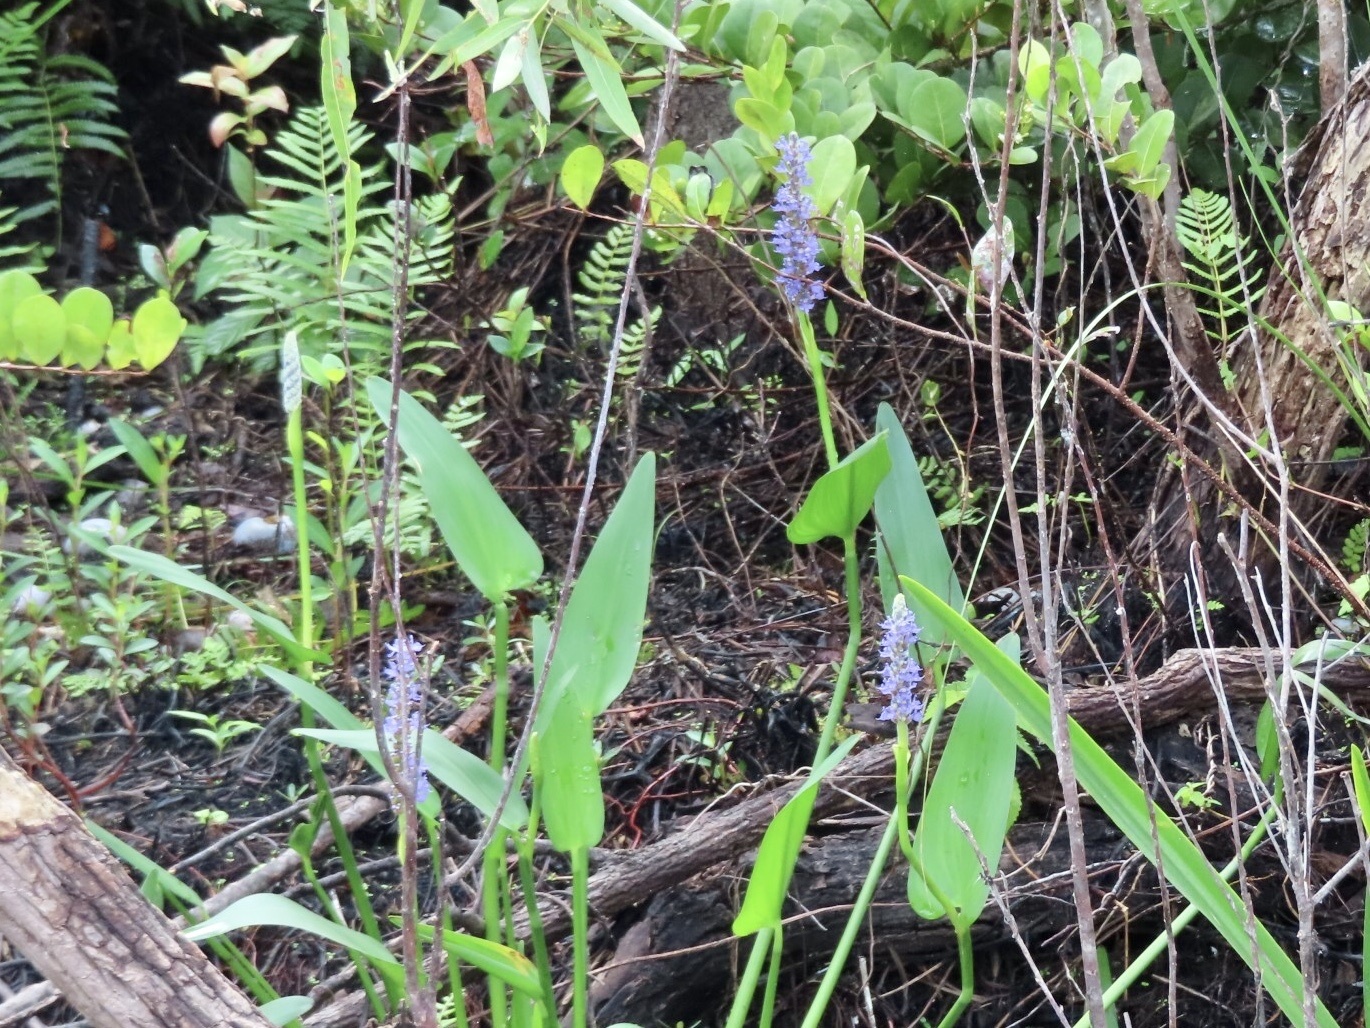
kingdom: Plantae
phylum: Tracheophyta
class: Liliopsida
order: Commelinales
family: Pontederiaceae
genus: Pontederia
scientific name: Pontederia cordata
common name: Pickerelweed
